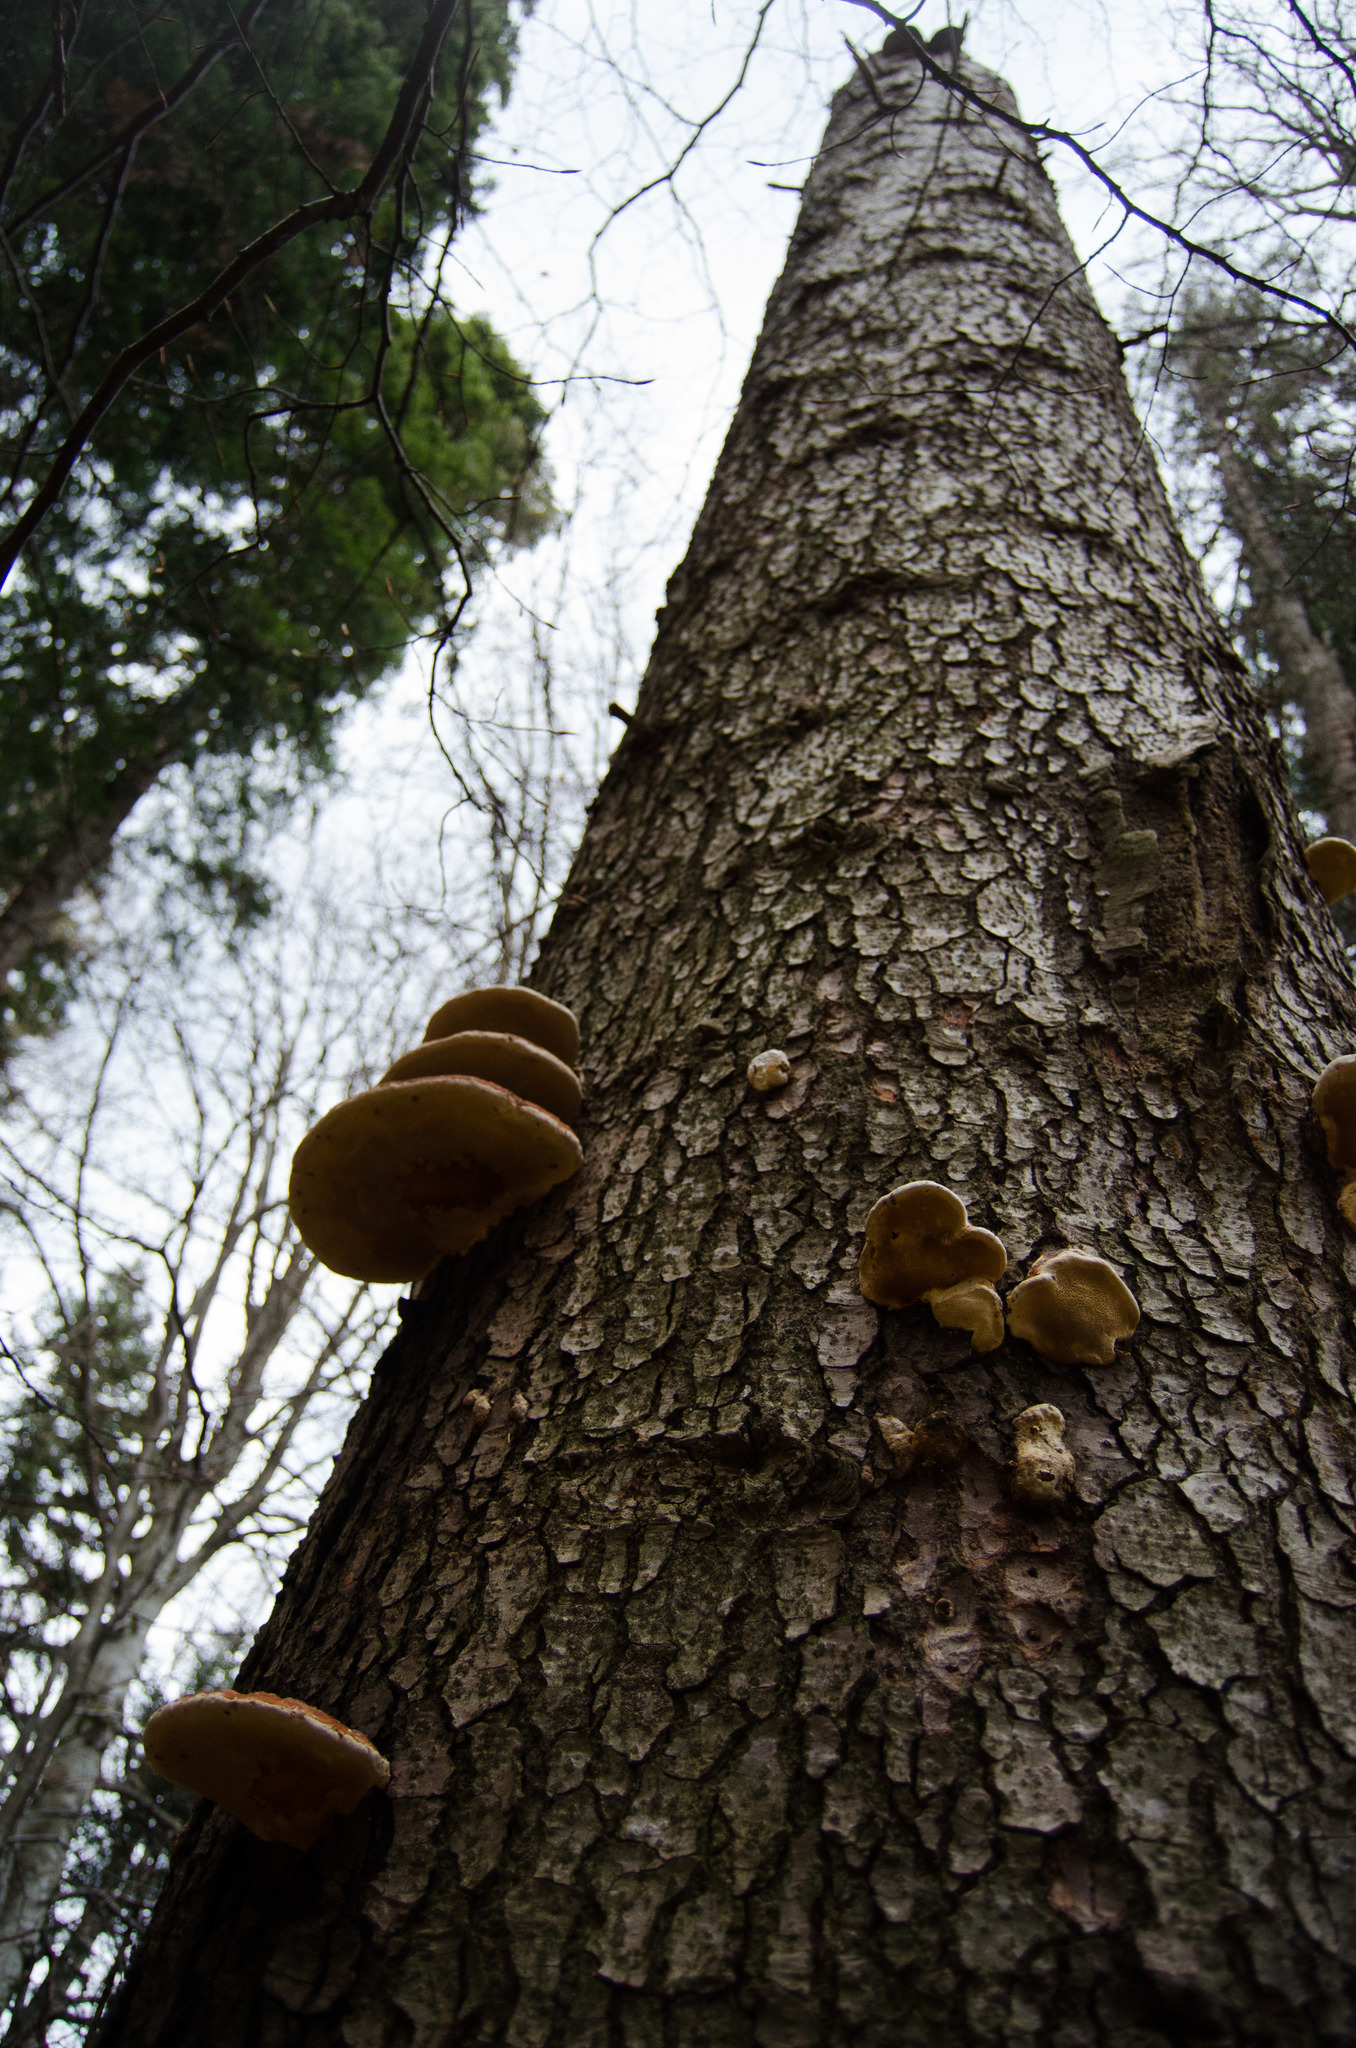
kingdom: Fungi
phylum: Basidiomycota
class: Agaricomycetes
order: Polyporales
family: Fomitopsidaceae
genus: Fomitopsis
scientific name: Fomitopsis pinicola
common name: Red-belted bracket
